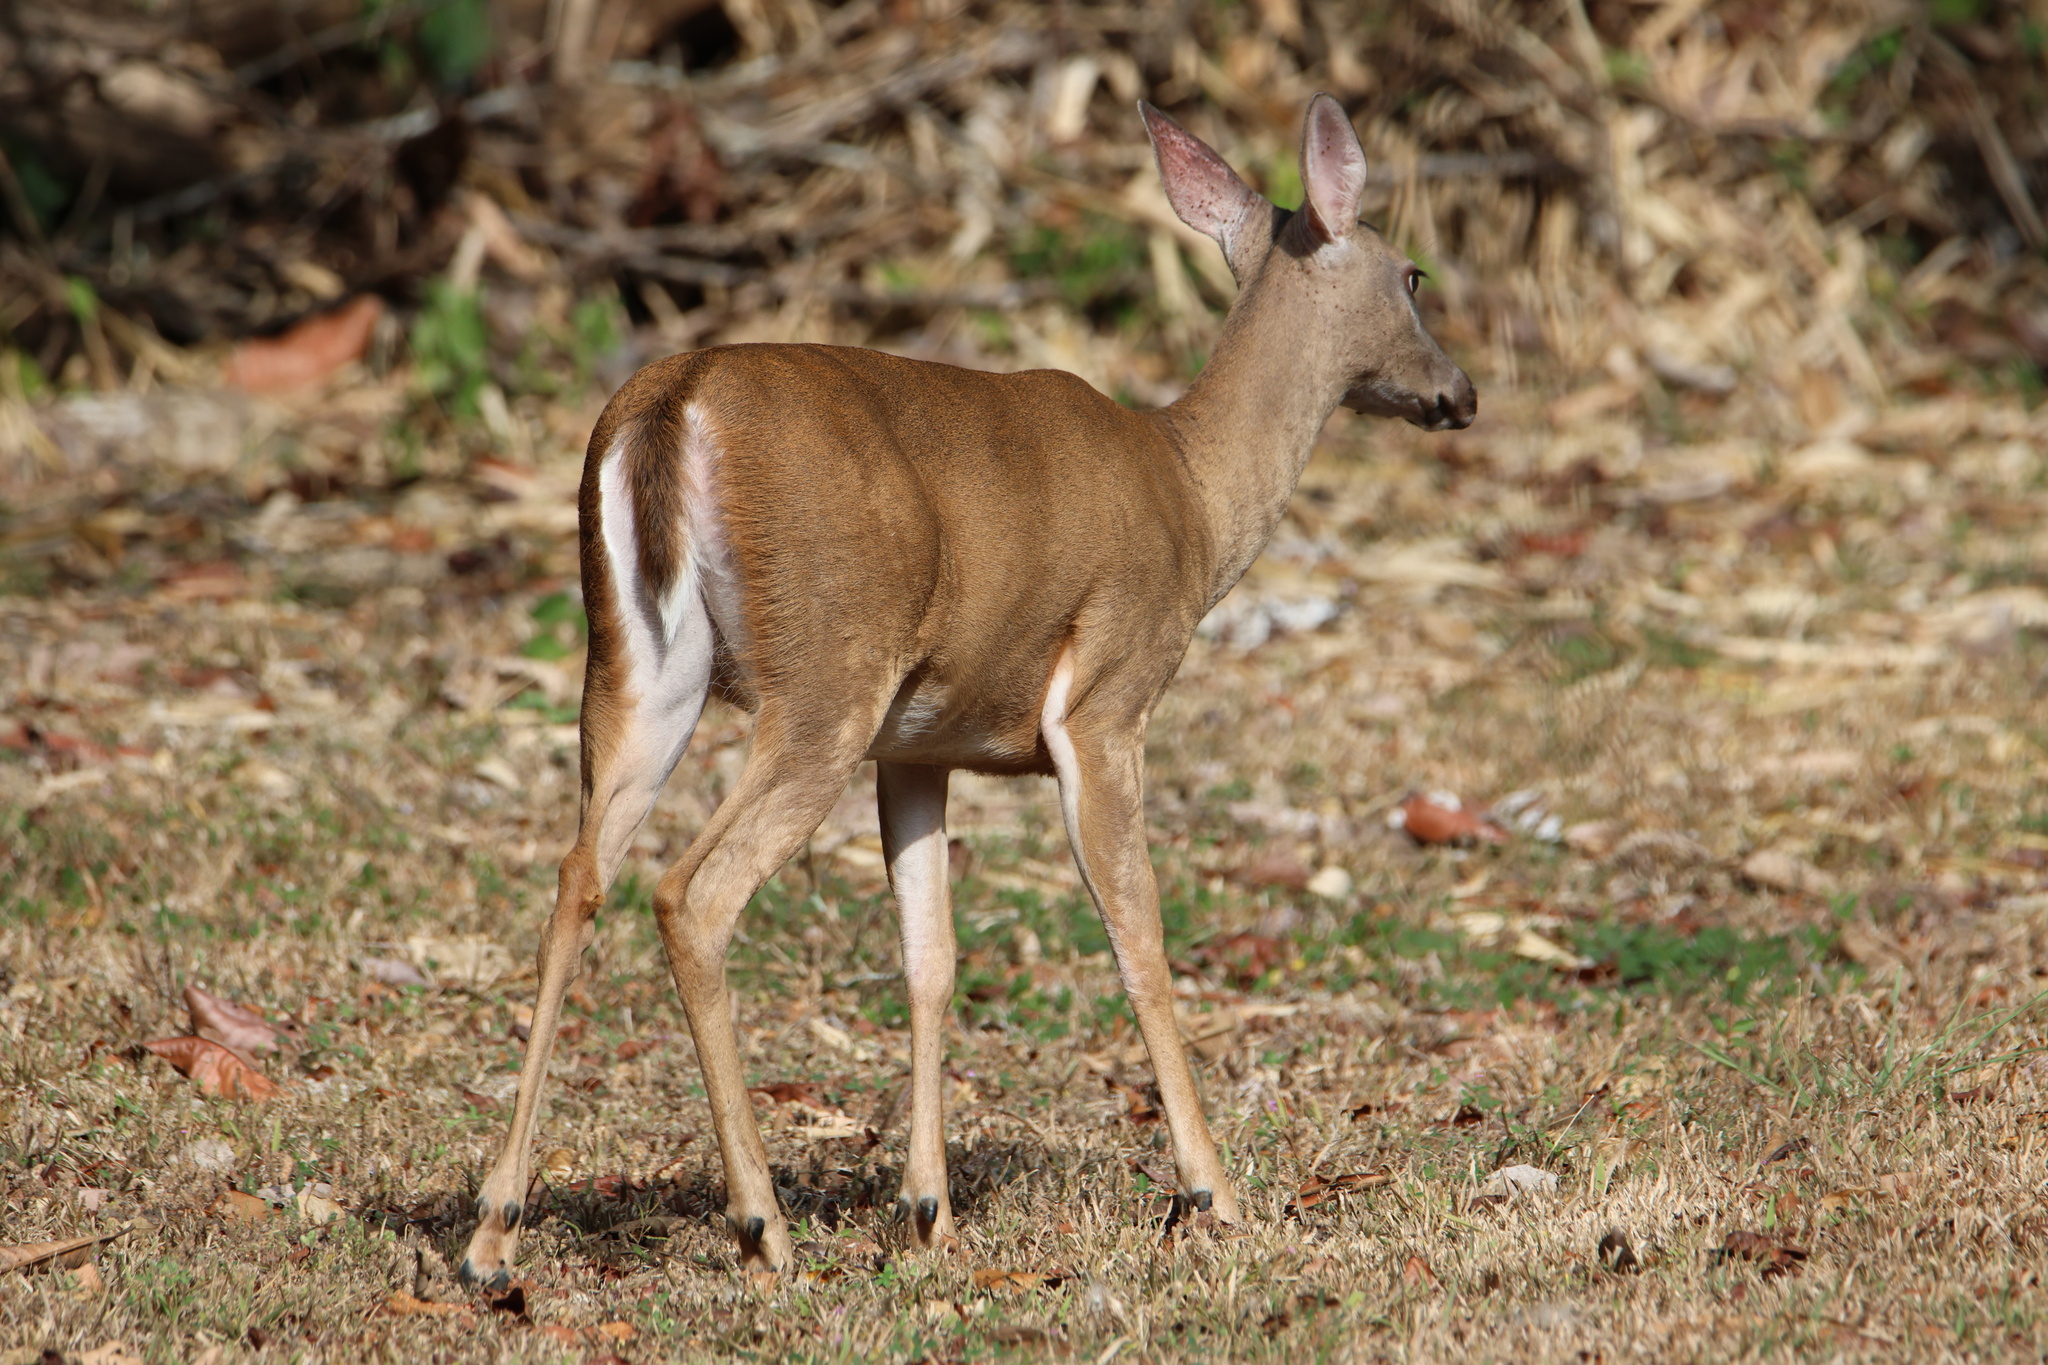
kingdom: Animalia
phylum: Chordata
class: Mammalia
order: Artiodactyla
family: Cervidae
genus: Odocoileus
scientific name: Odocoileus virginianus
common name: White-tailed deer
